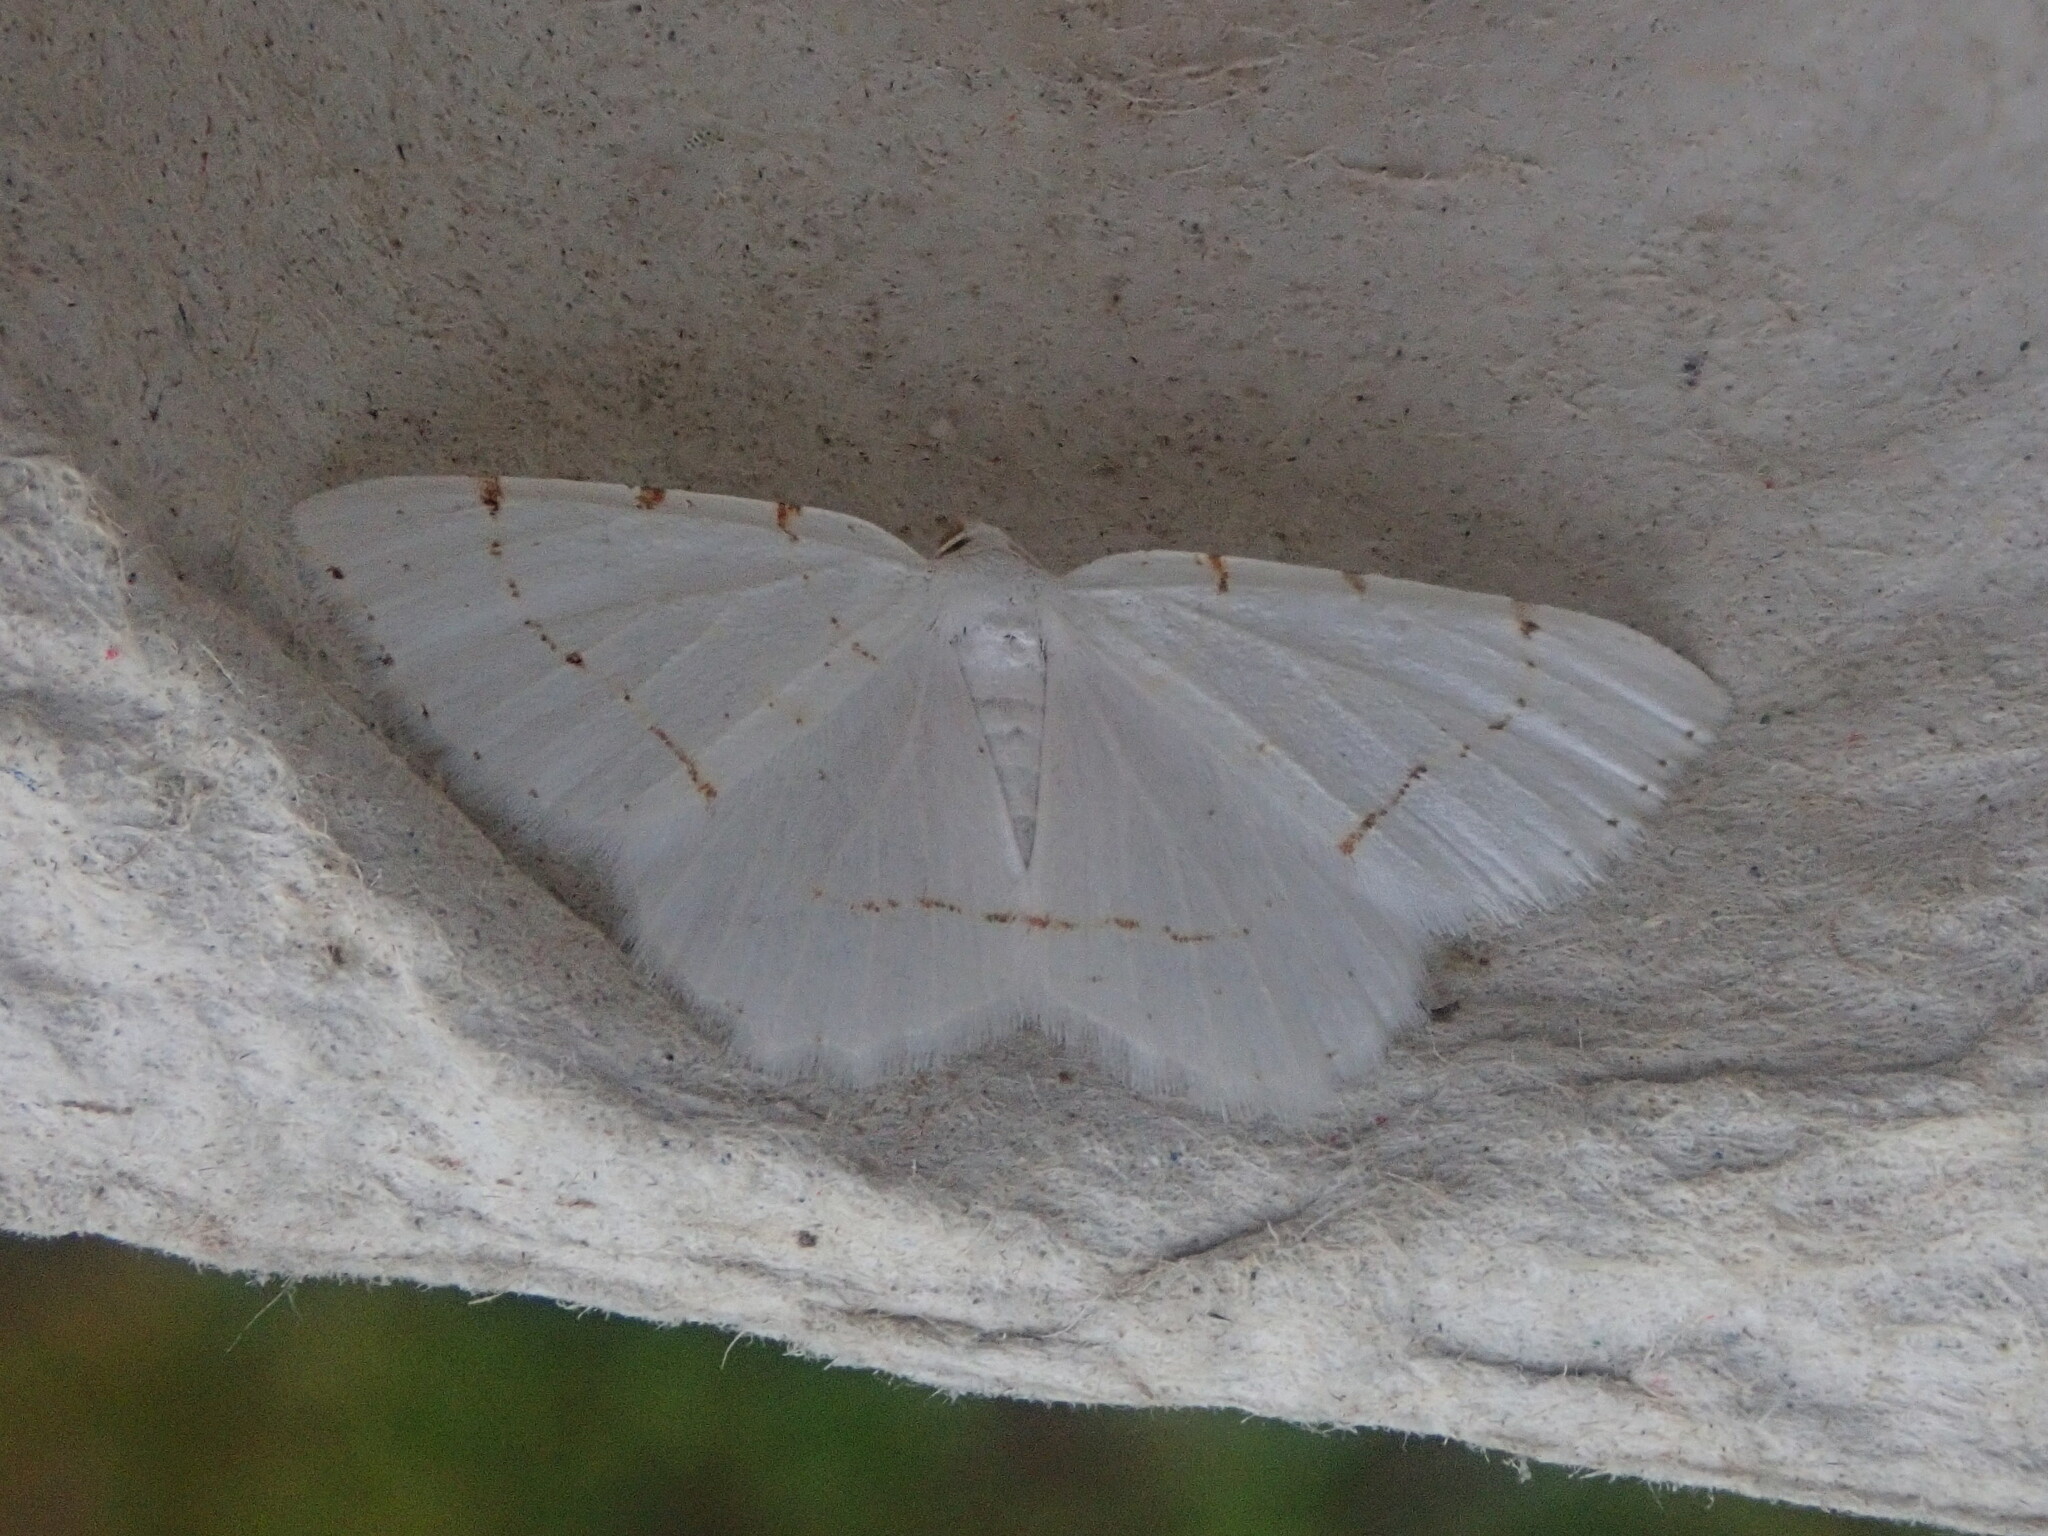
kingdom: Animalia
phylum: Arthropoda
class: Insecta
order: Lepidoptera
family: Geometridae
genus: Macaria
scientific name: Macaria pustularia
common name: Lesser maple spanworm moth
